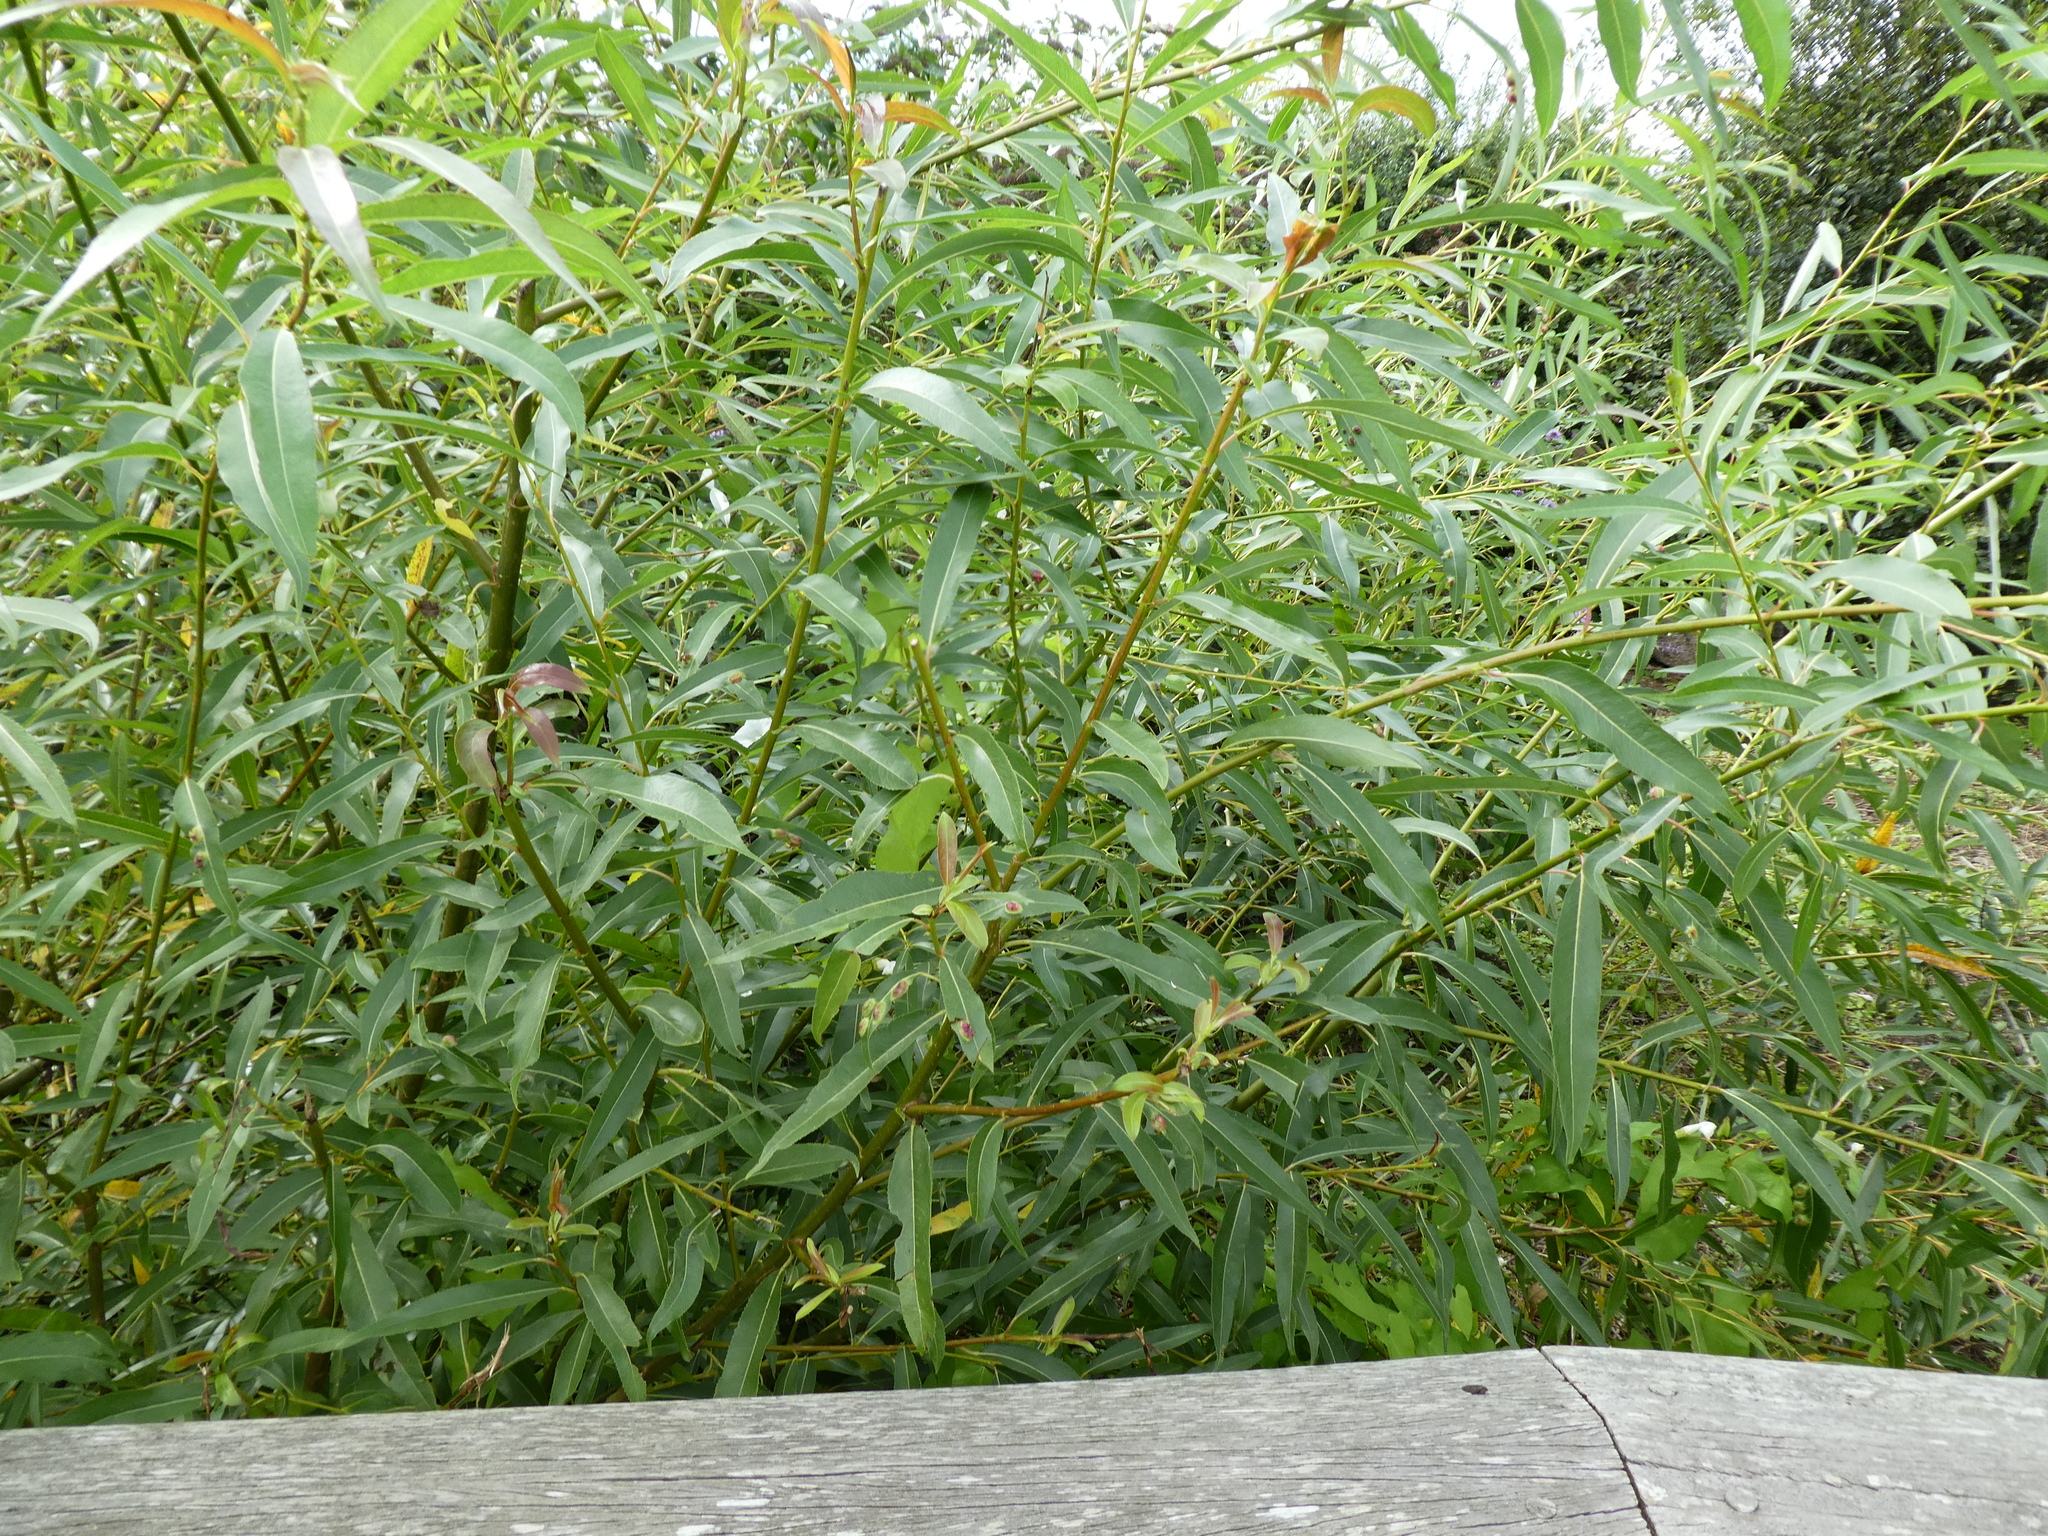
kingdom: Animalia
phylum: Arthropoda
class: Insecta
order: Hymenoptera
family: Tenthredinidae
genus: Pontania
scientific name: Pontania proxima
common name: Common sawfly
